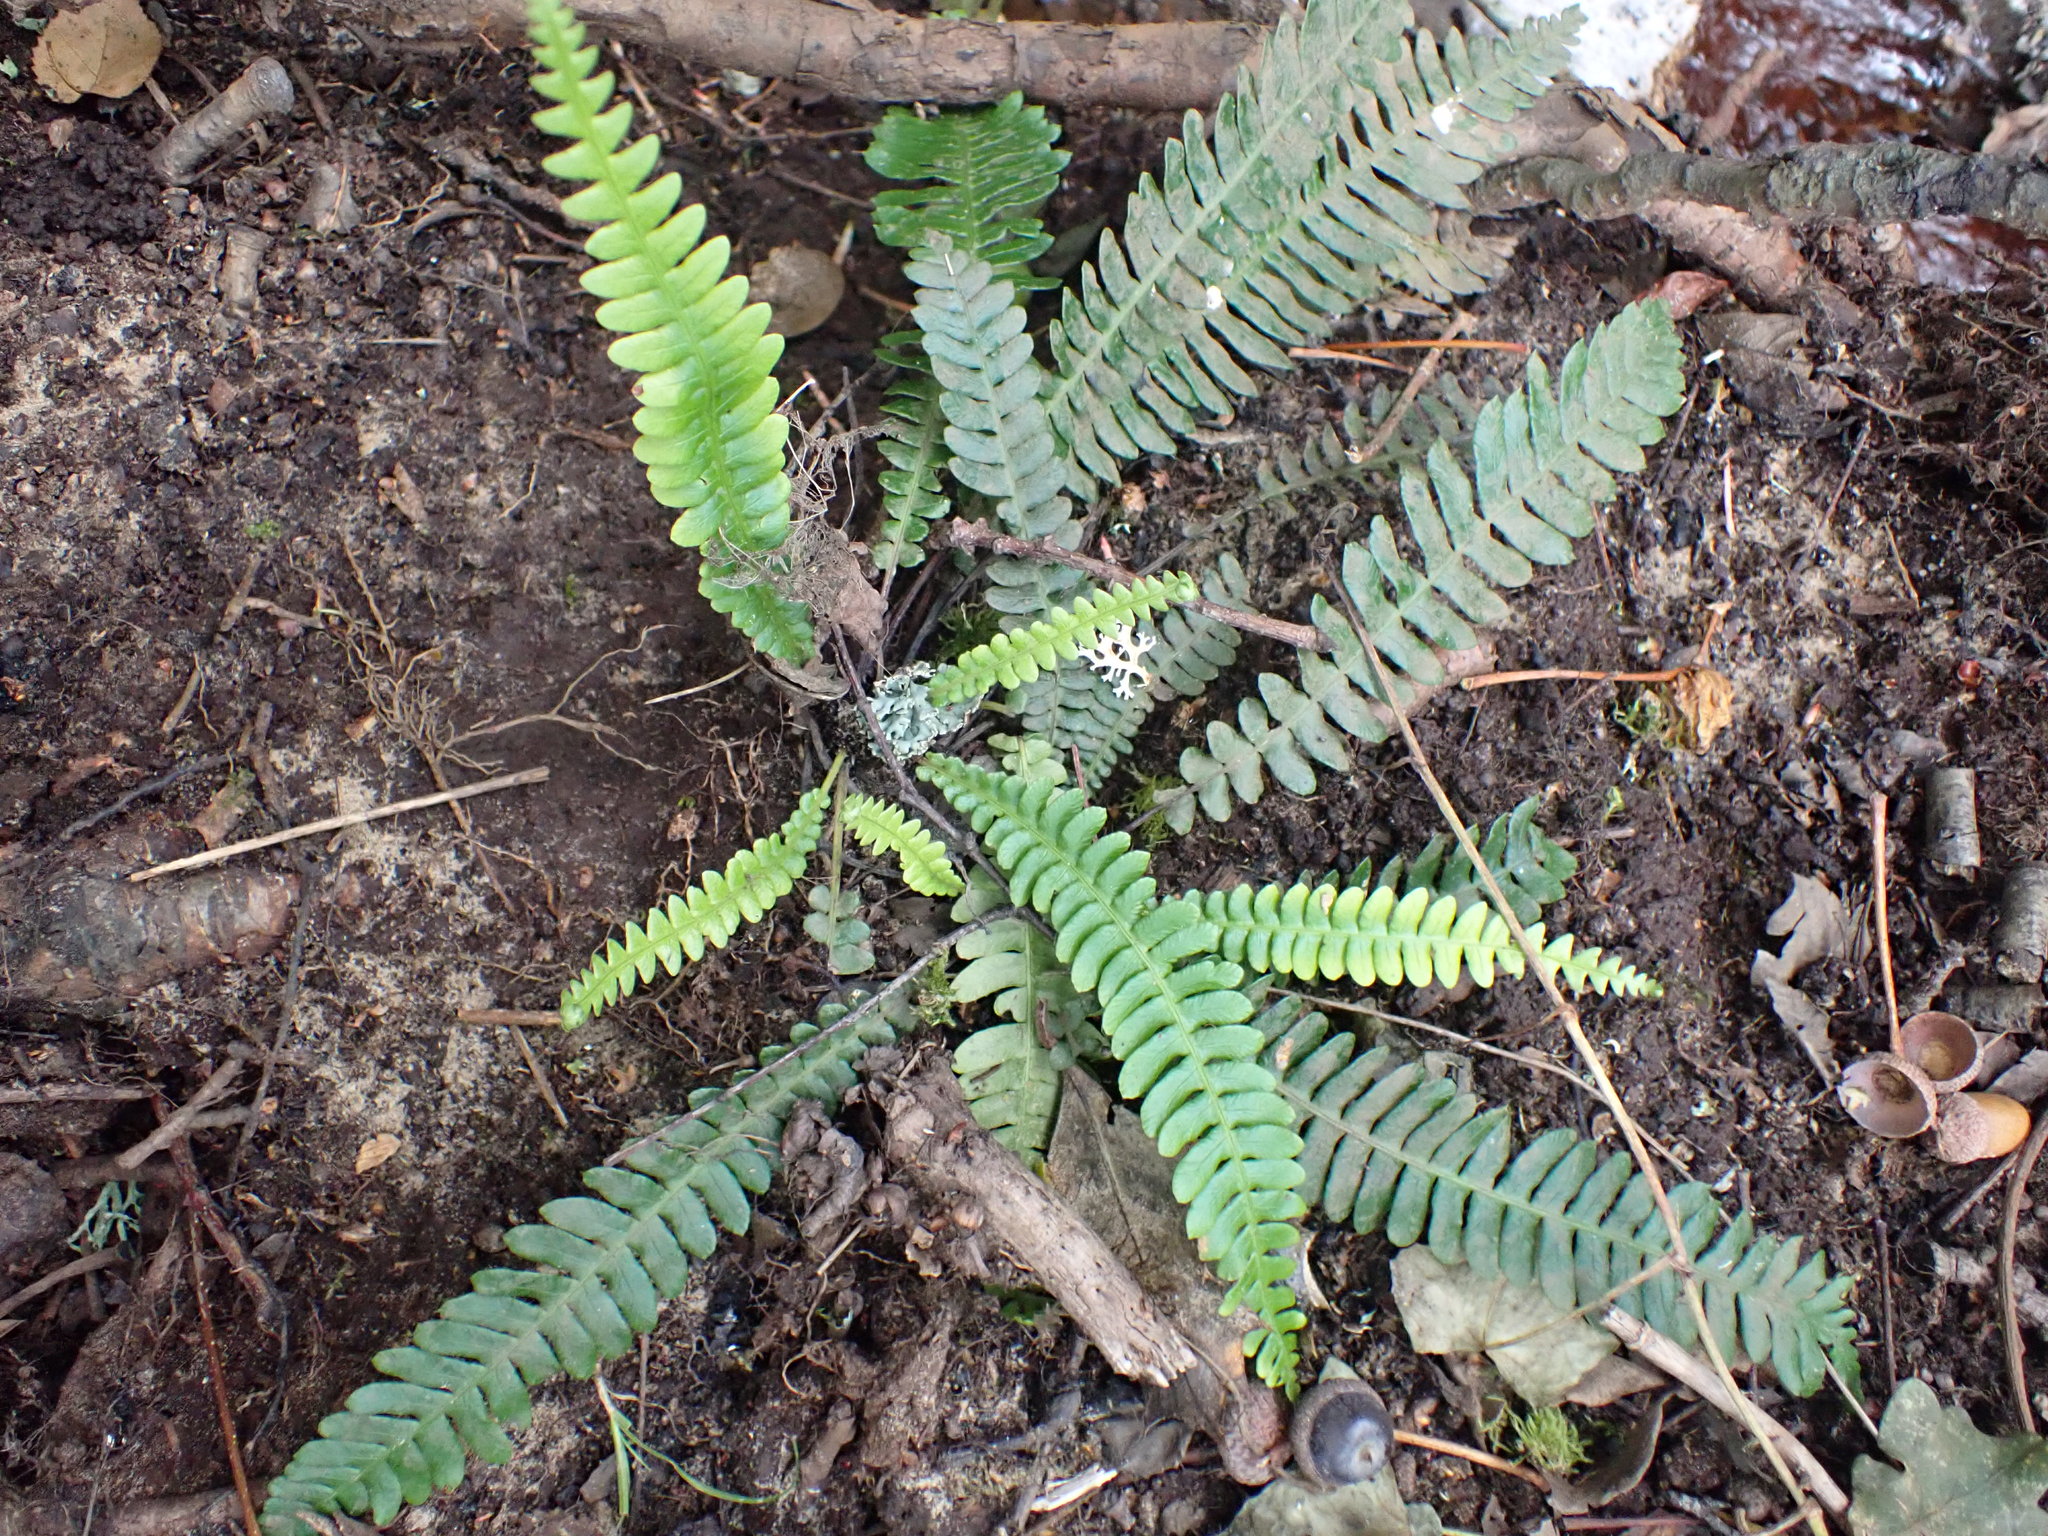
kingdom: Plantae
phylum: Tracheophyta
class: Polypodiopsida
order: Polypodiales
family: Blechnaceae
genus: Struthiopteris
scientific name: Struthiopteris spicant
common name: Deer fern
